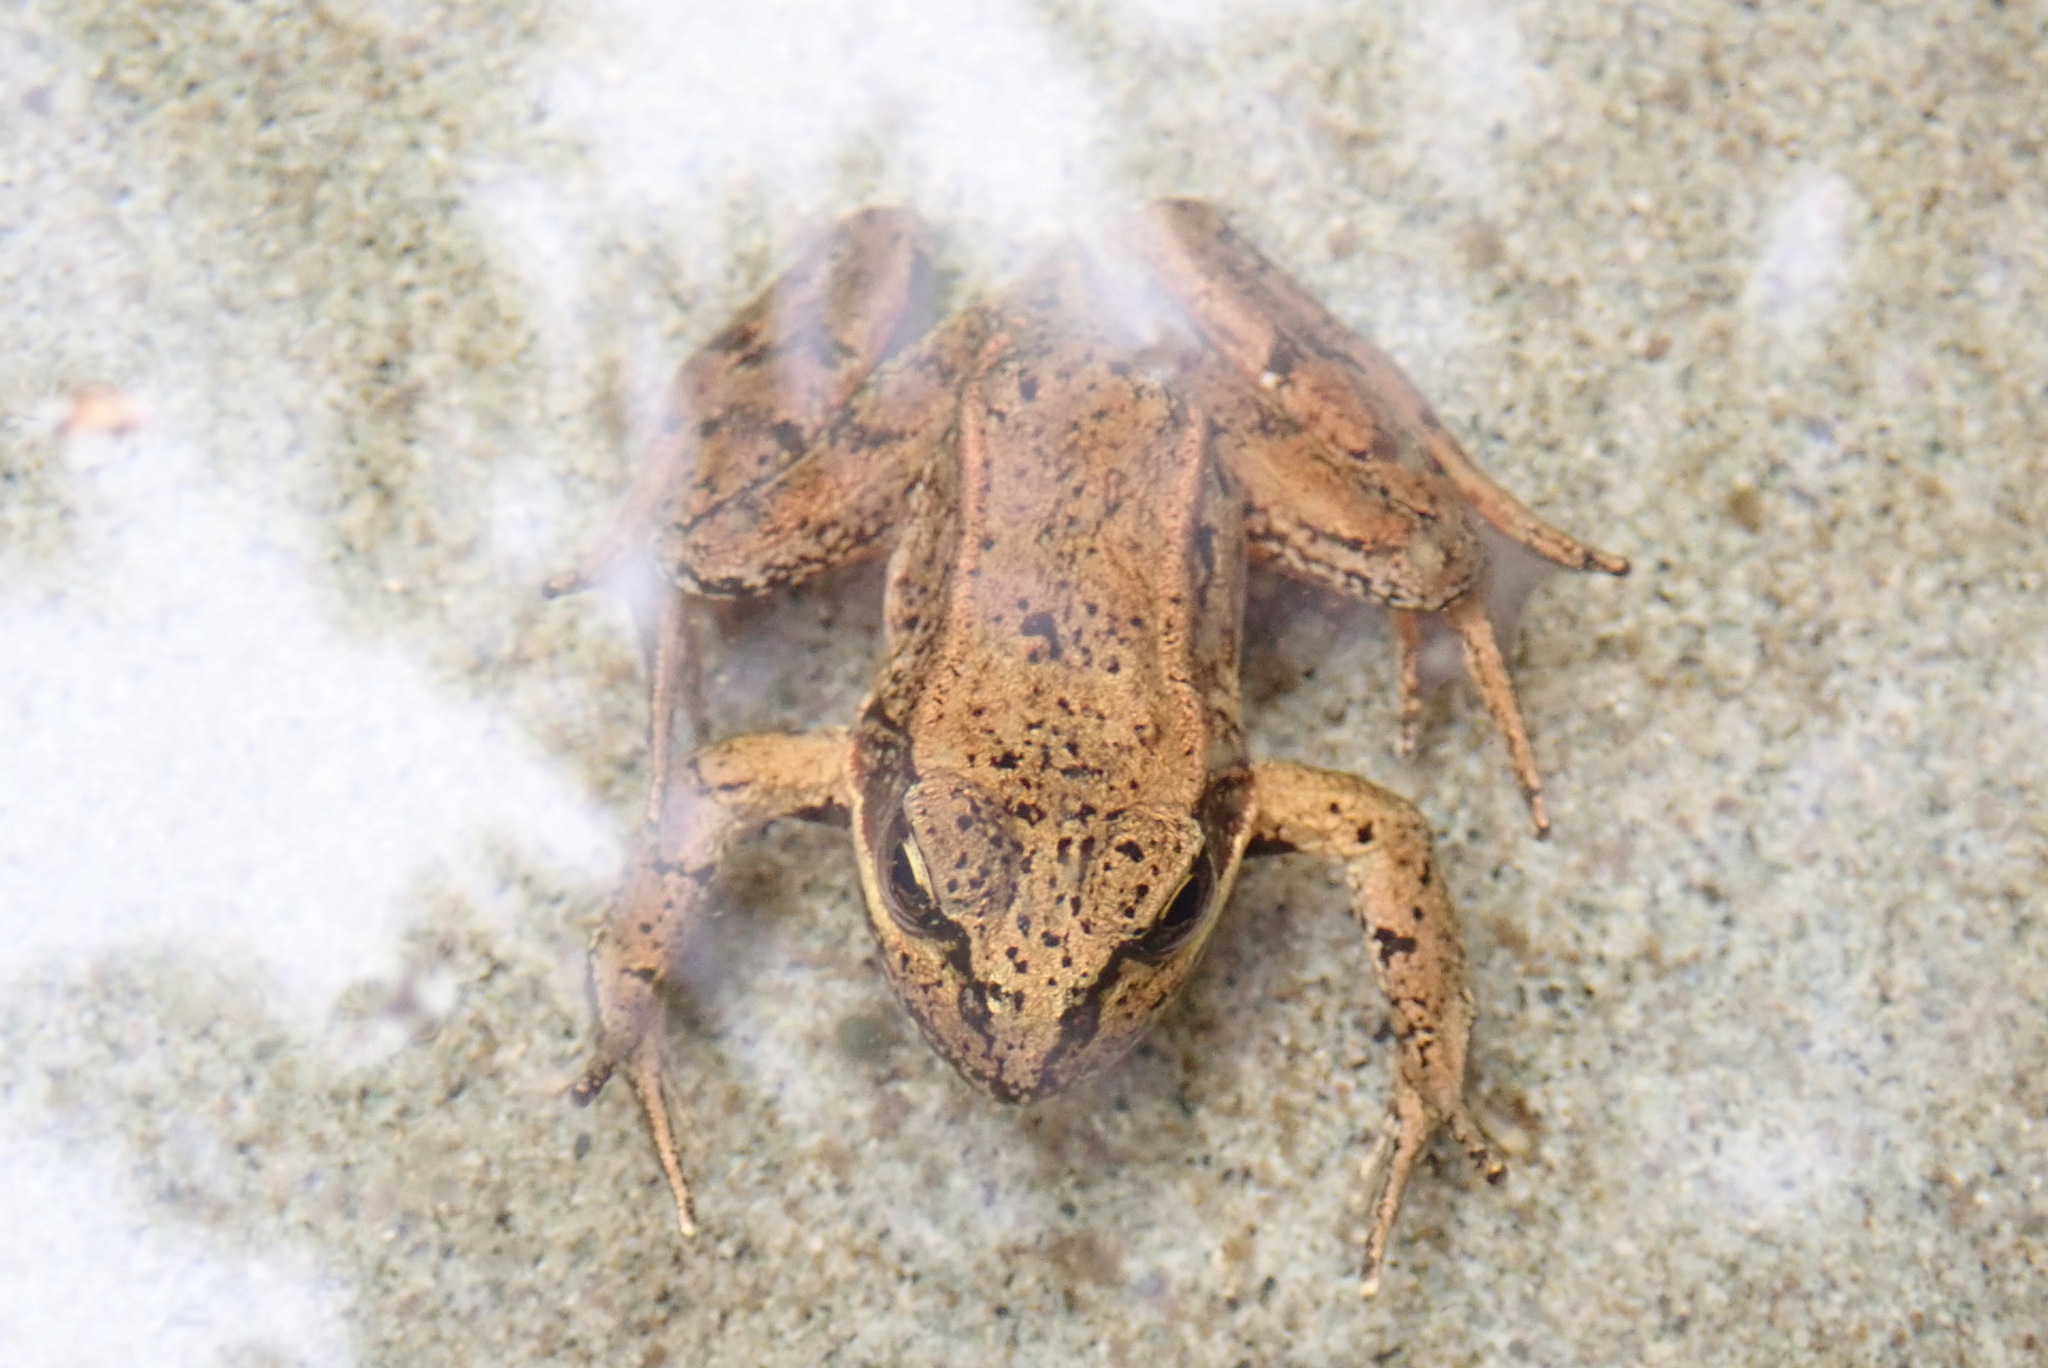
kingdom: Animalia
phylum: Chordata
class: Amphibia
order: Anura
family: Ranidae
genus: Rana
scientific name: Rana aurora
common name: Red-legged frog
